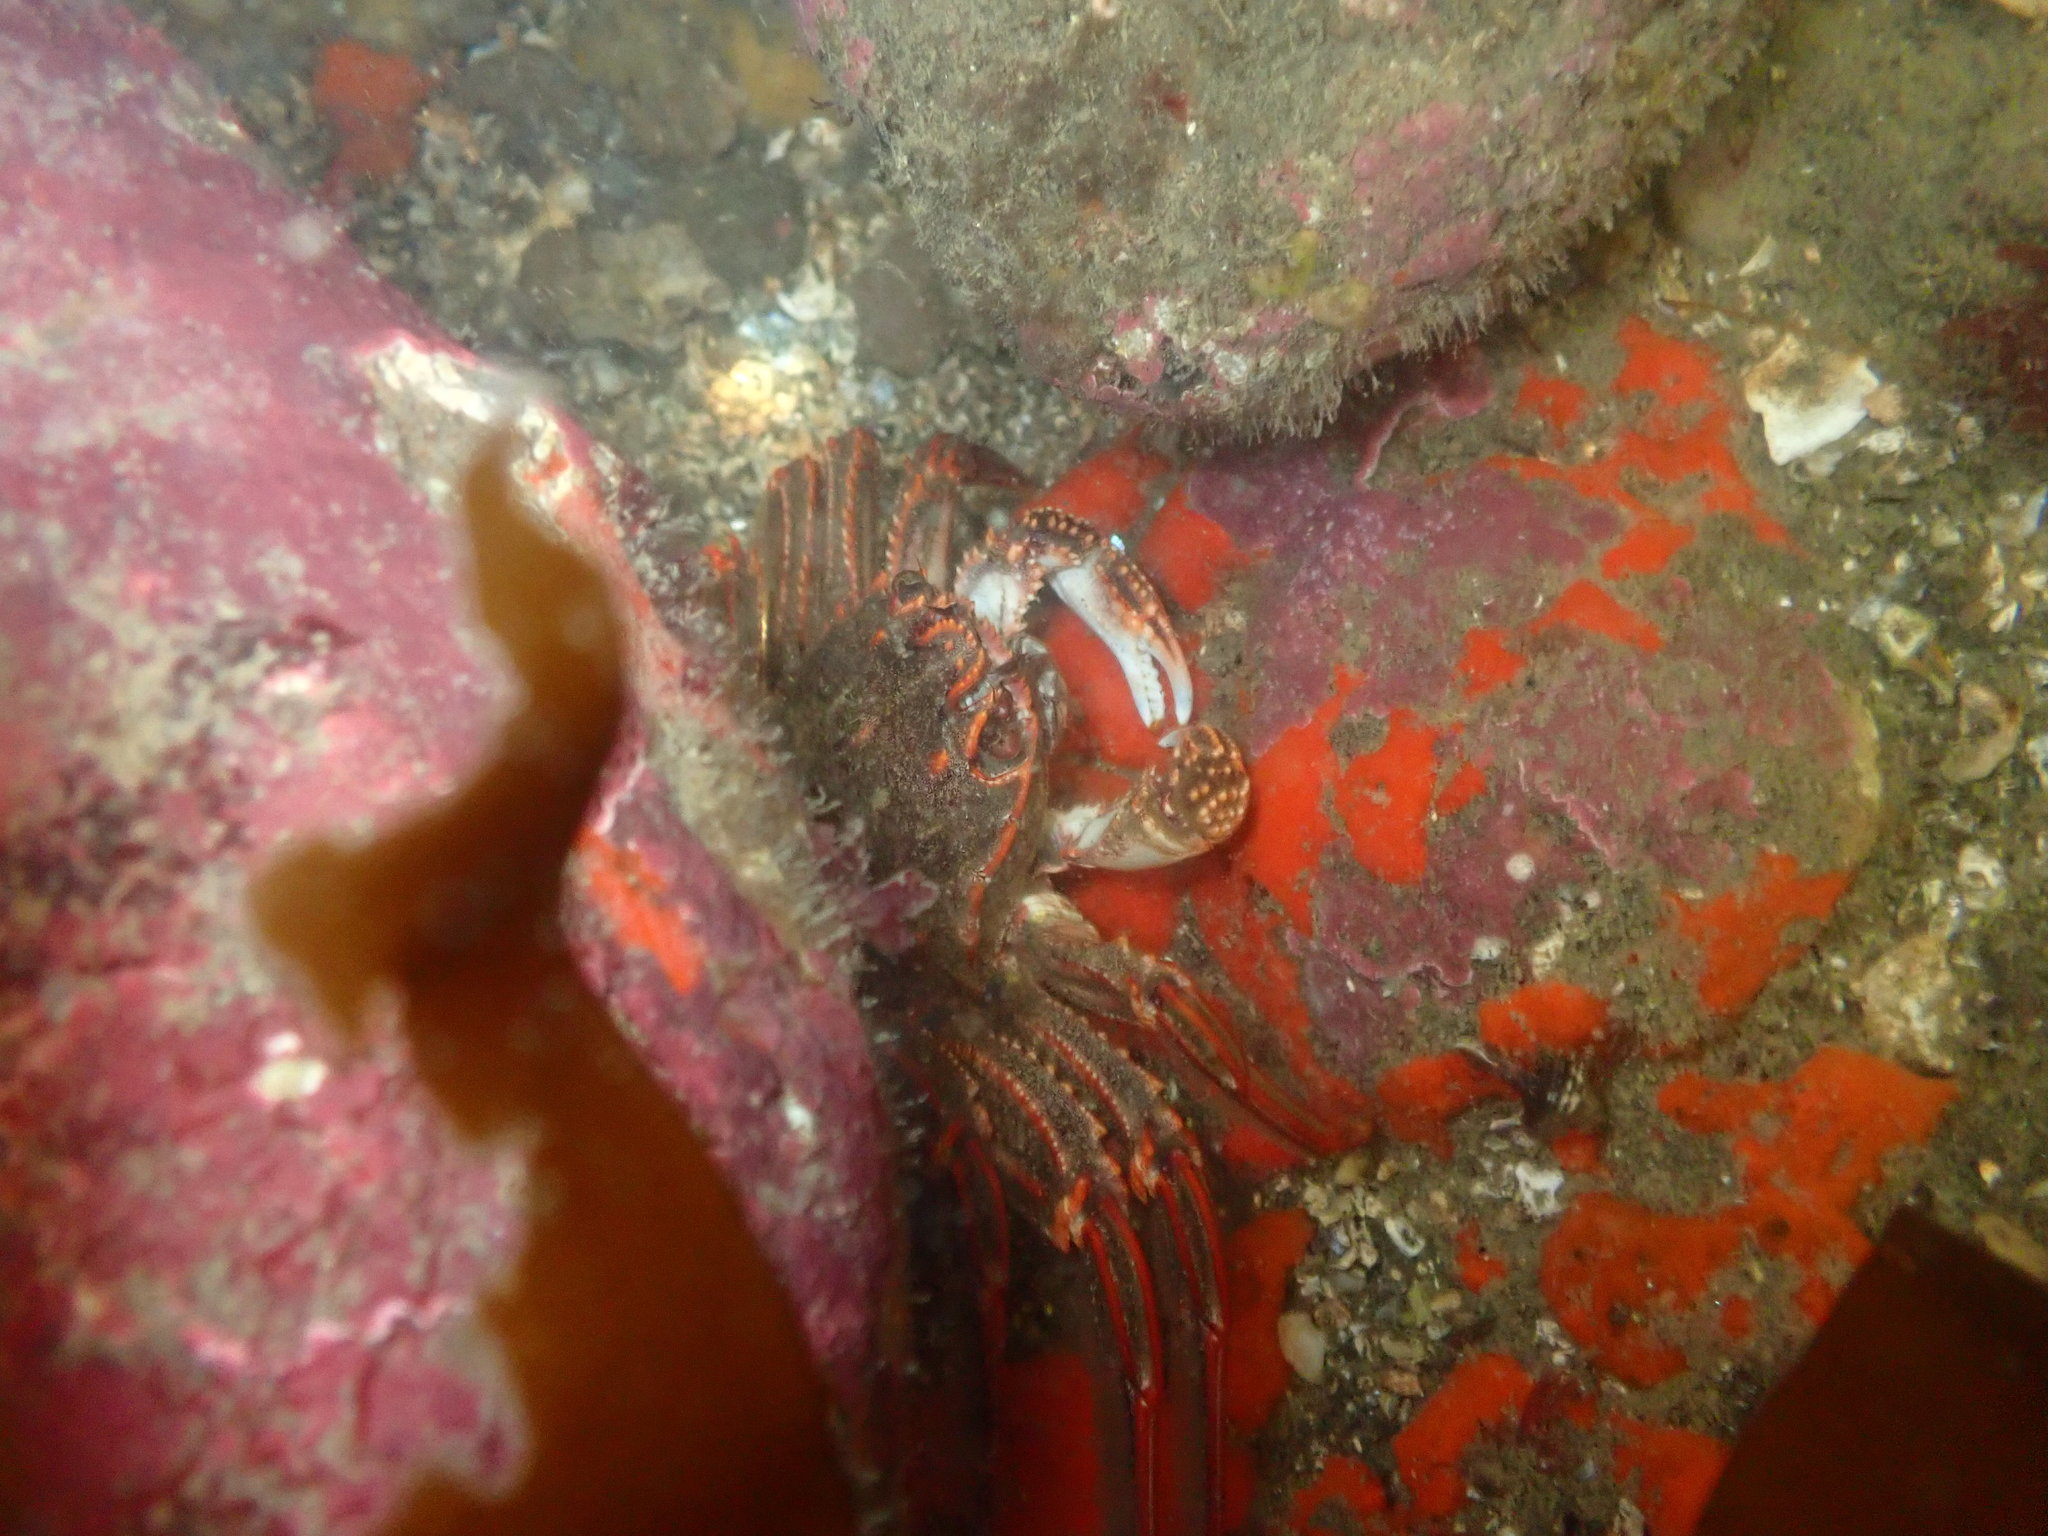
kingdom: Animalia
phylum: Arthropoda
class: Malacostraca
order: Decapoda
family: Plagusiidae
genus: Guinusia
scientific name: Guinusia chabrus
